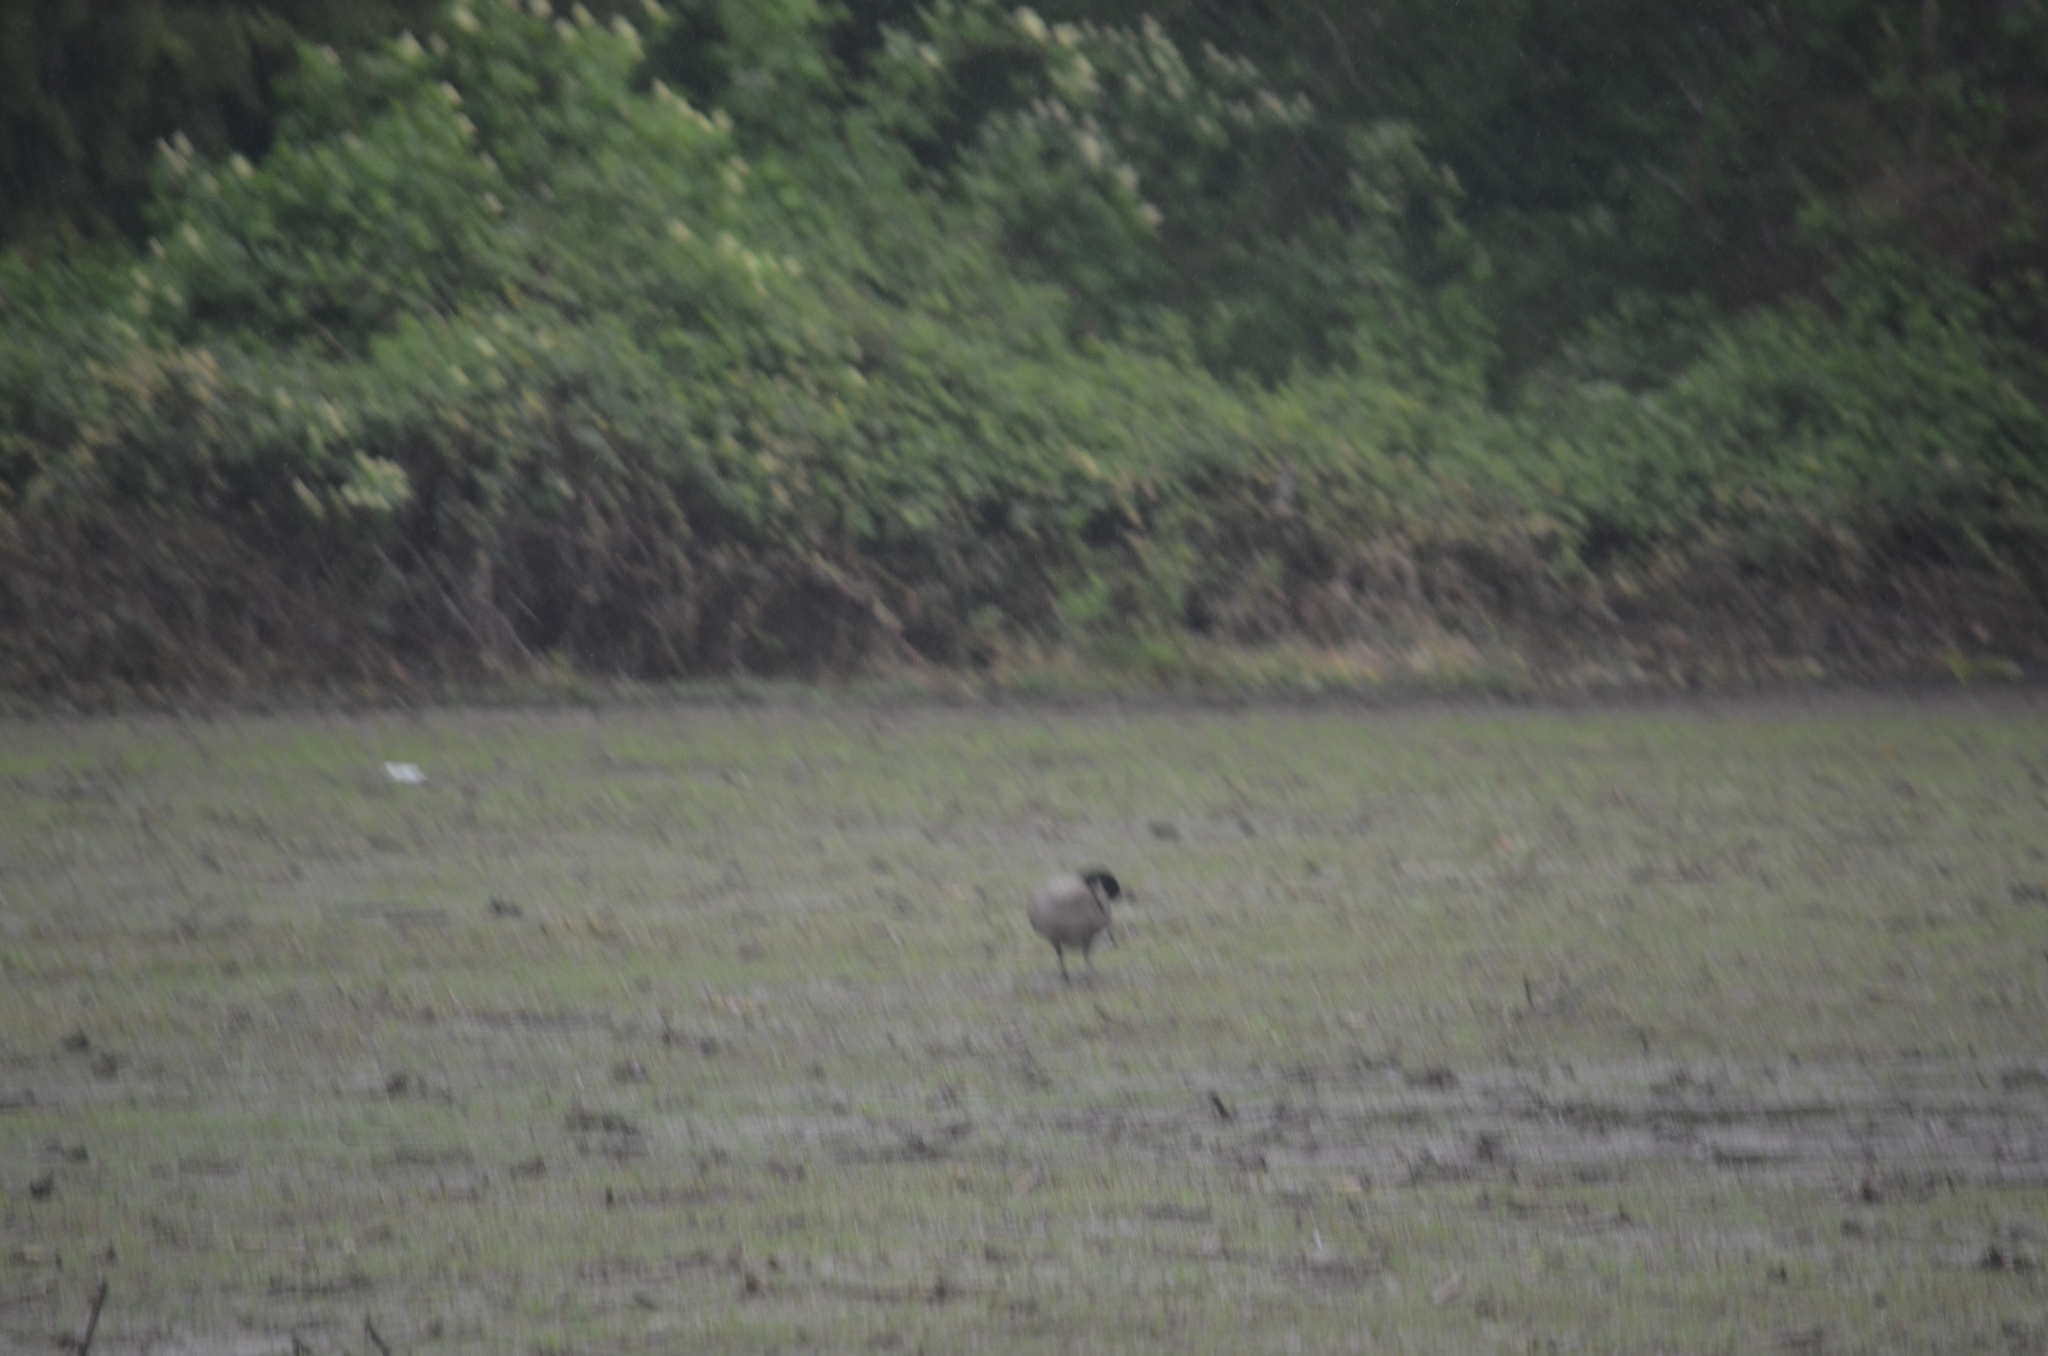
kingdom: Animalia
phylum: Chordata
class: Aves
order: Anseriformes
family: Anatidae
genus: Branta
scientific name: Branta canadensis
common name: Canada goose
